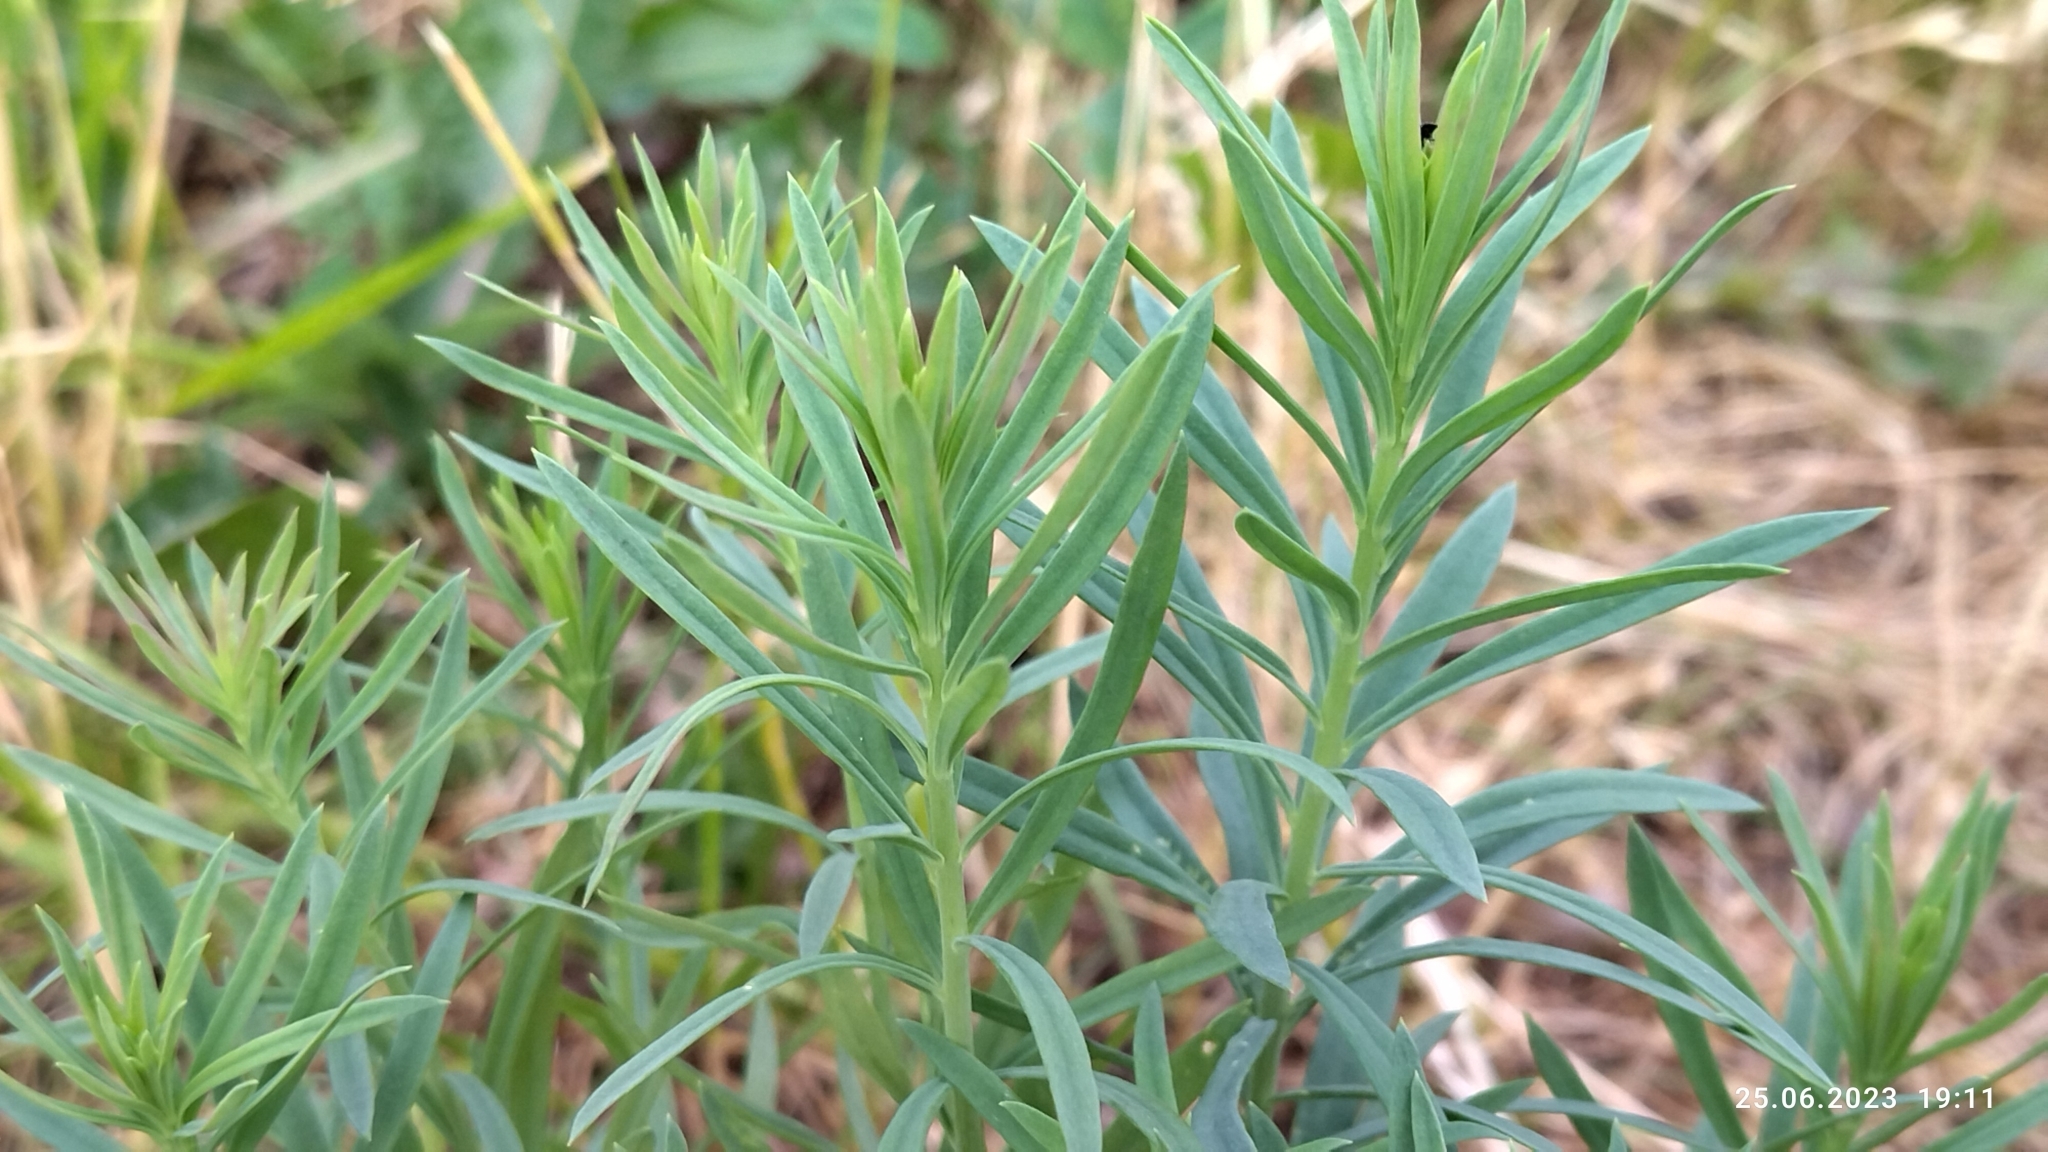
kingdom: Plantae
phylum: Tracheophyta
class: Magnoliopsida
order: Lamiales
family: Plantaginaceae
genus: Linaria
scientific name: Linaria vulgaris
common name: Butter and eggs
